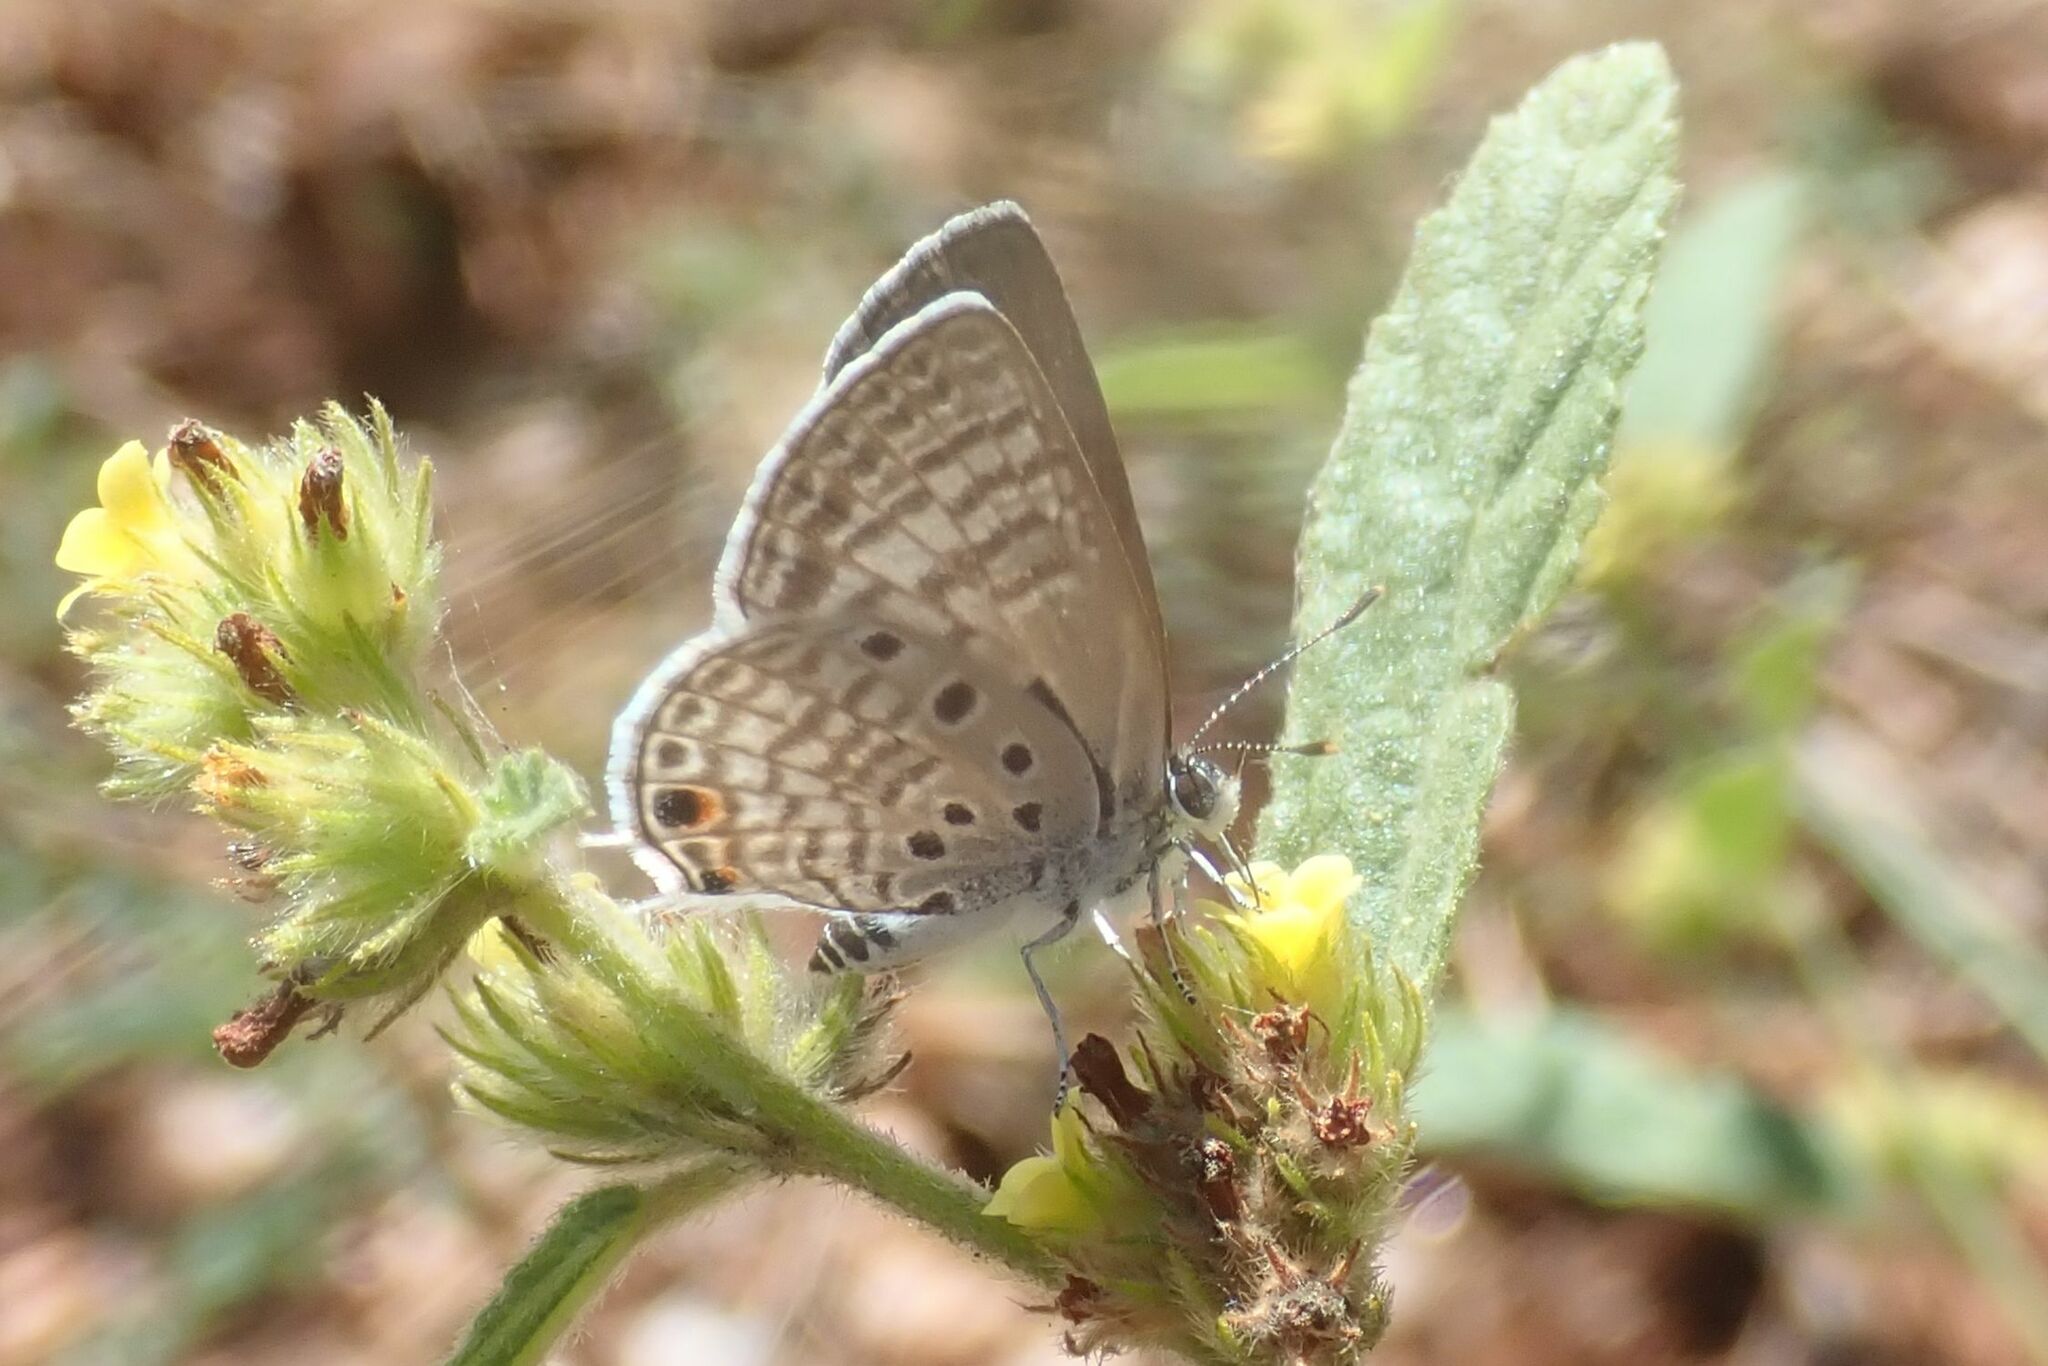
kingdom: Animalia
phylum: Arthropoda
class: Insecta
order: Lepidoptera
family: Lycaenidae
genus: Anthene
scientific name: Anthene amarah
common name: Black-striped hairtail
